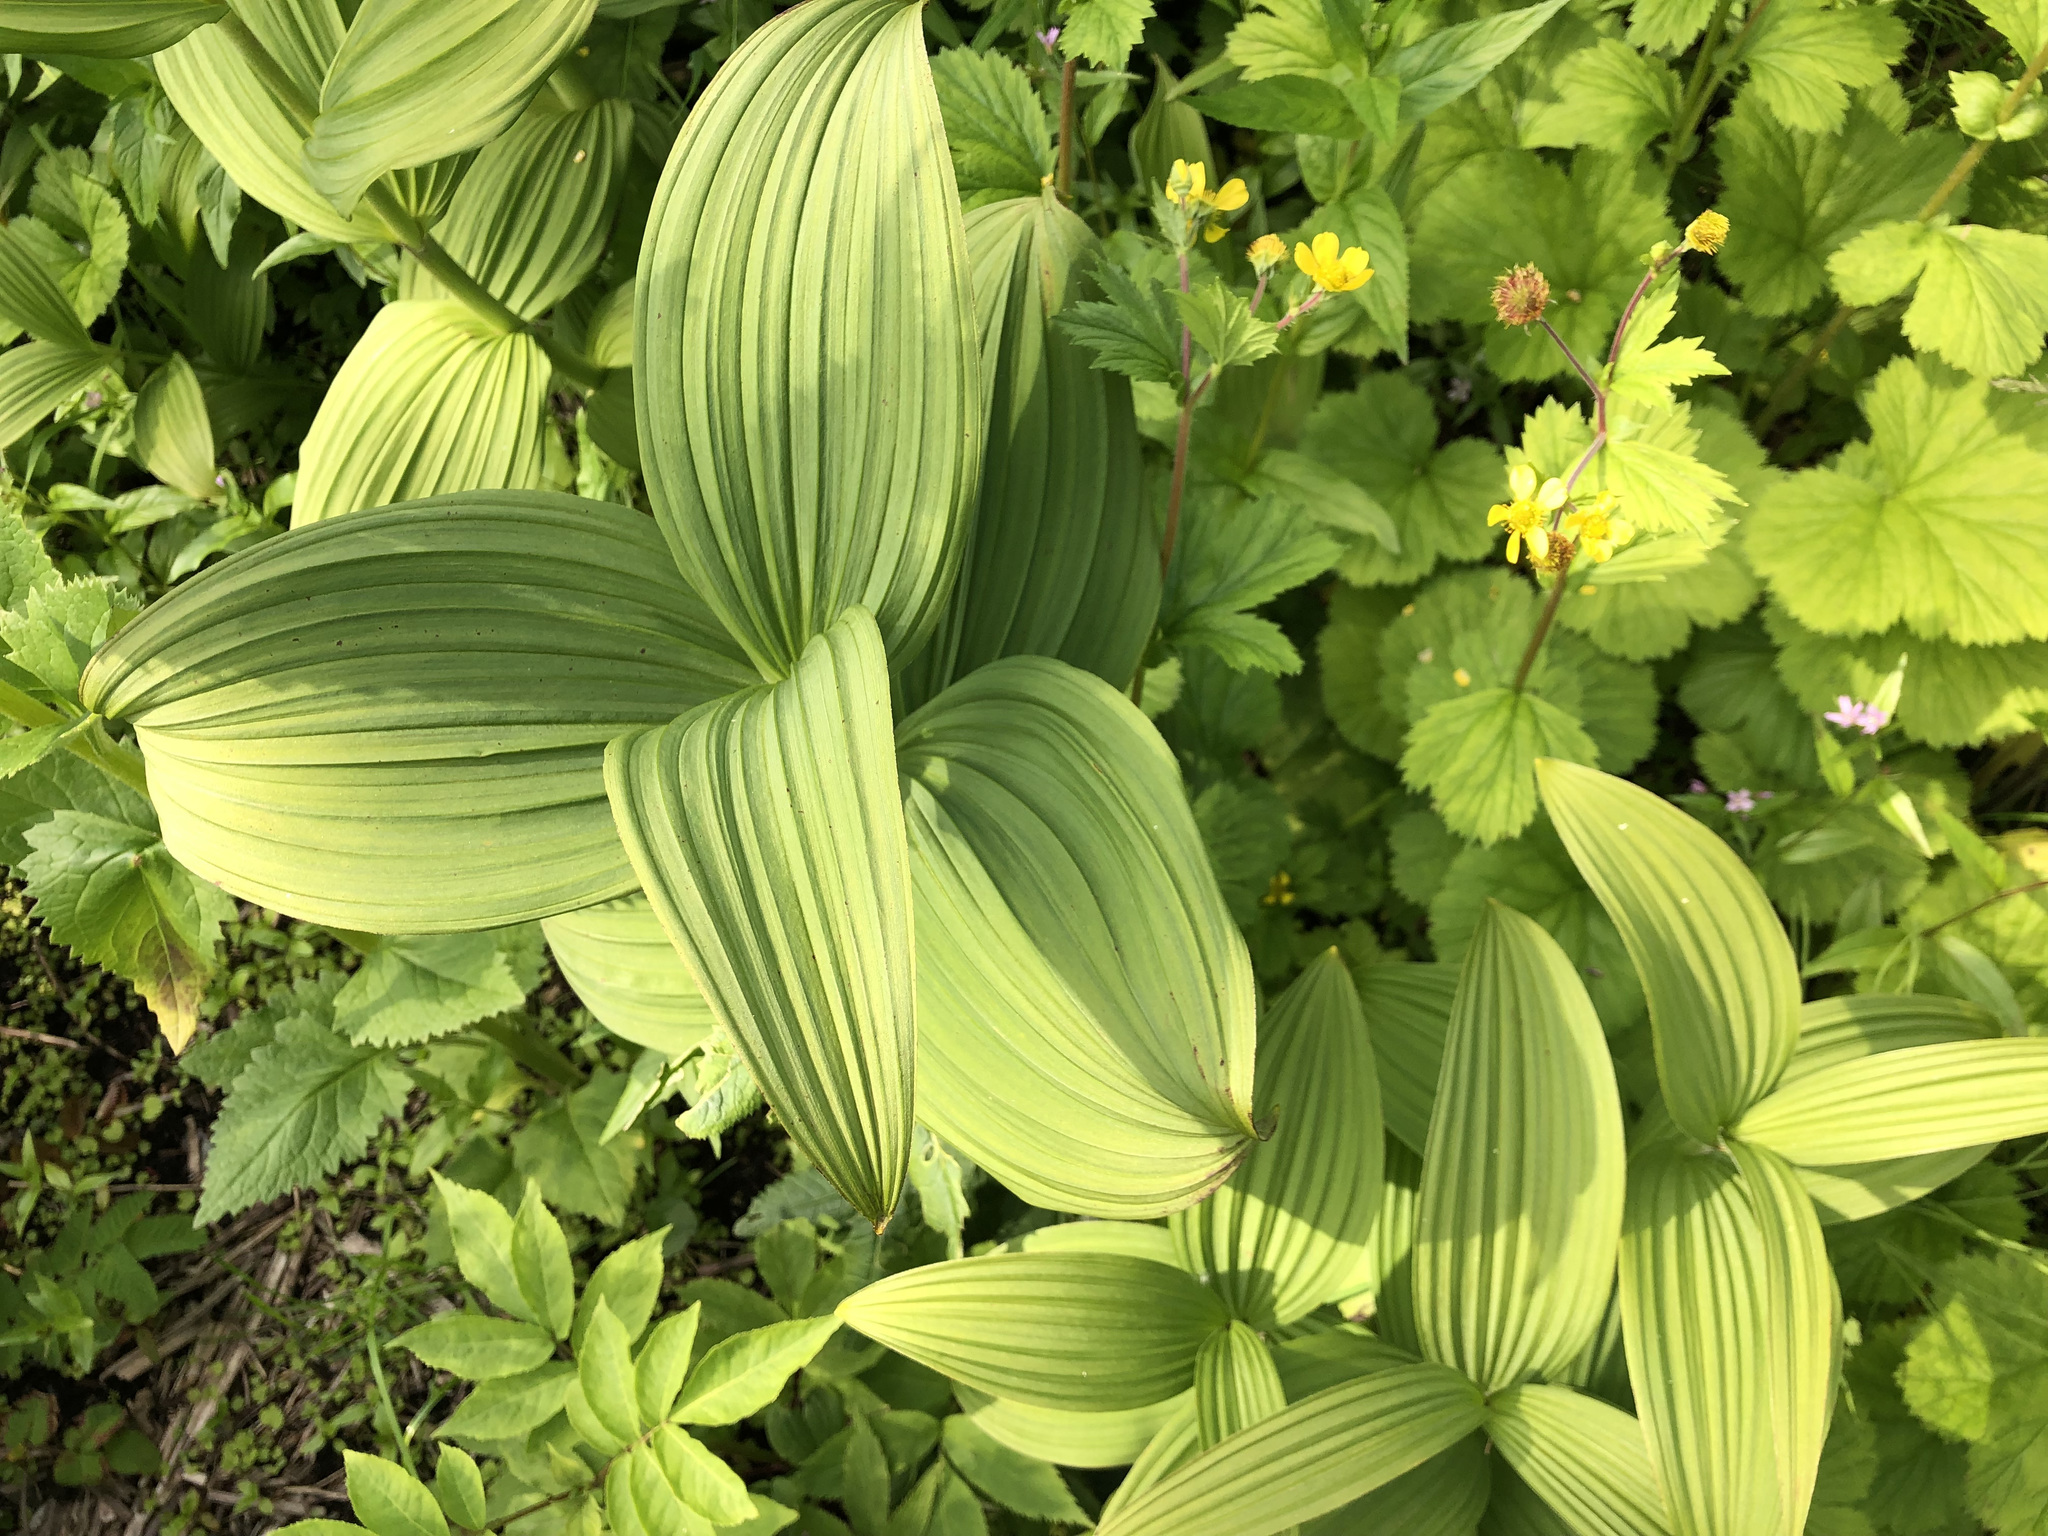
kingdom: Plantae
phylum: Tracheophyta
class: Liliopsida
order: Liliales
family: Melanthiaceae
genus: Veratrum
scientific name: Veratrum viride
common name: American false hellebore
